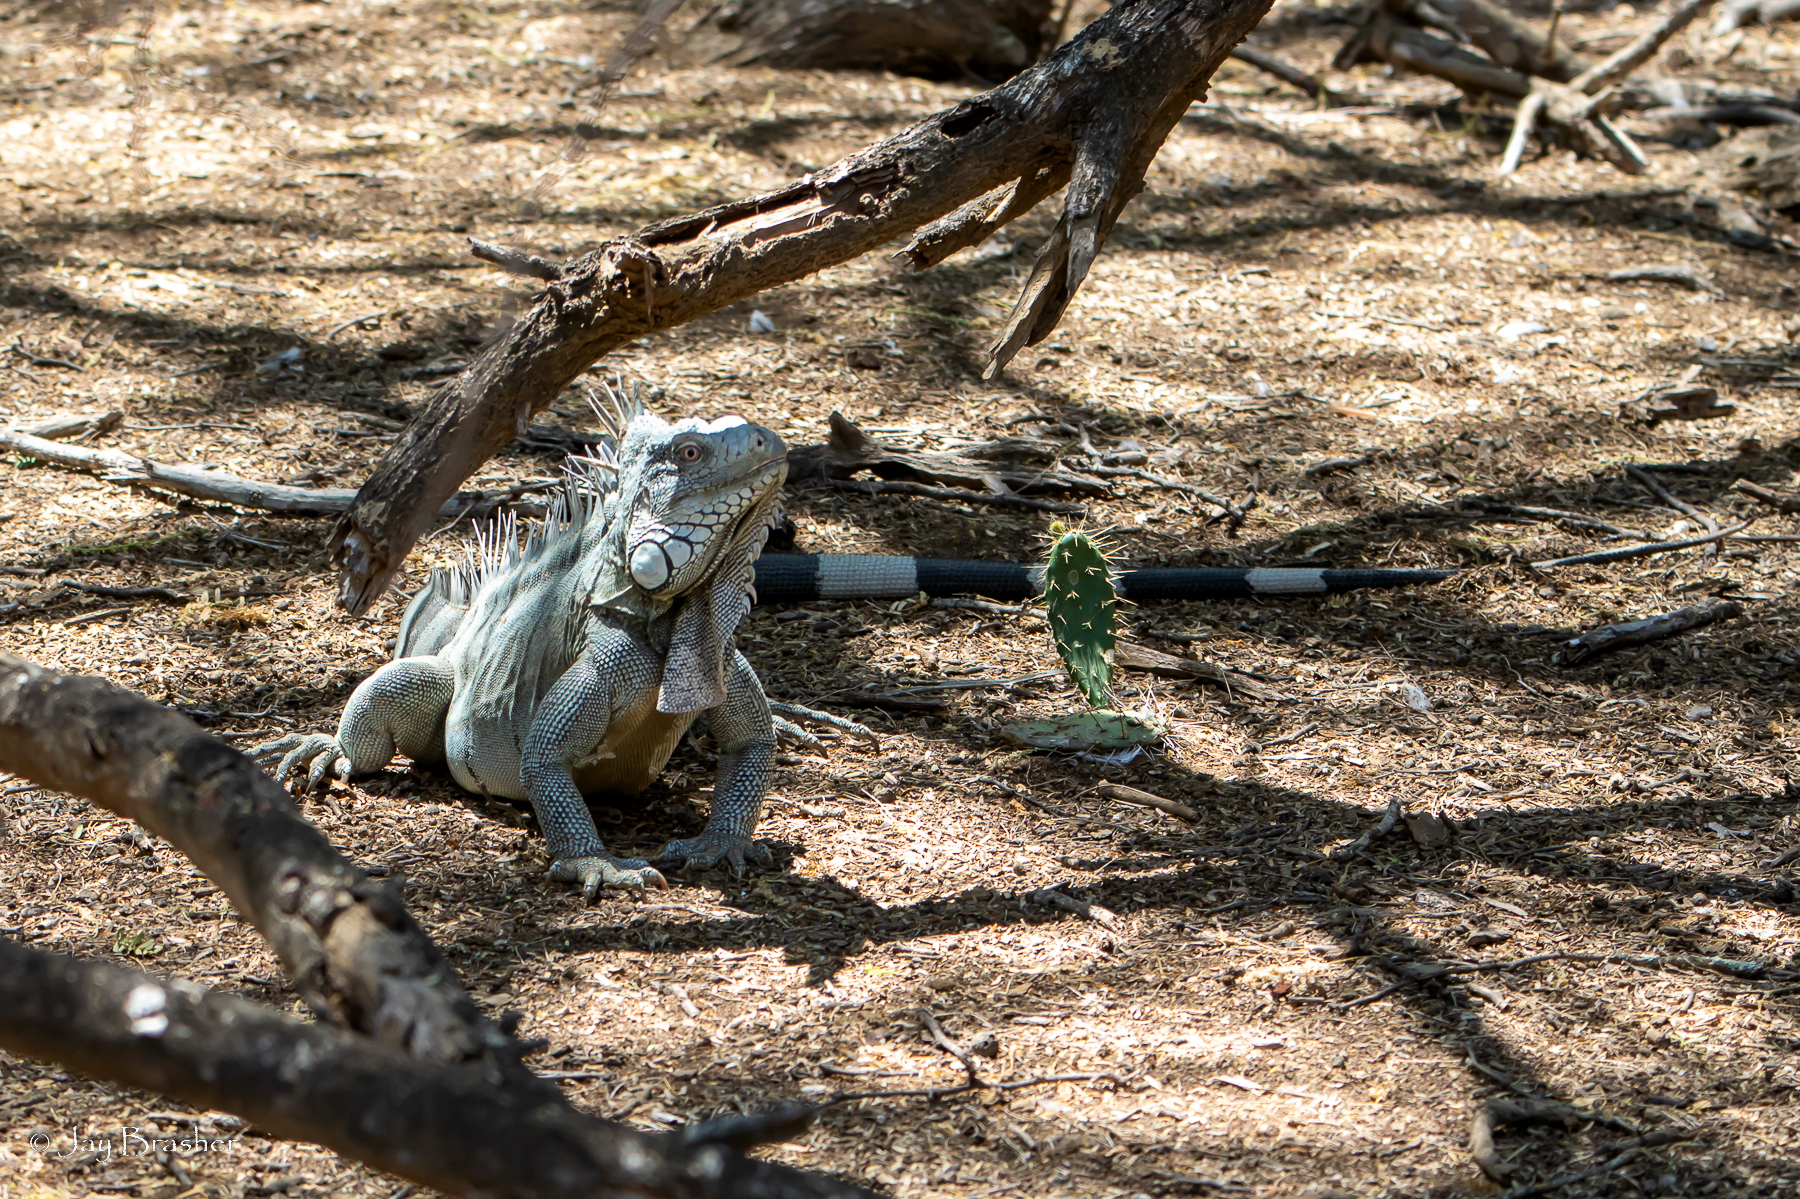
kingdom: Animalia
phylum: Chordata
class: Squamata
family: Iguanidae
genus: Iguana
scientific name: Iguana iguana
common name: Green iguana
